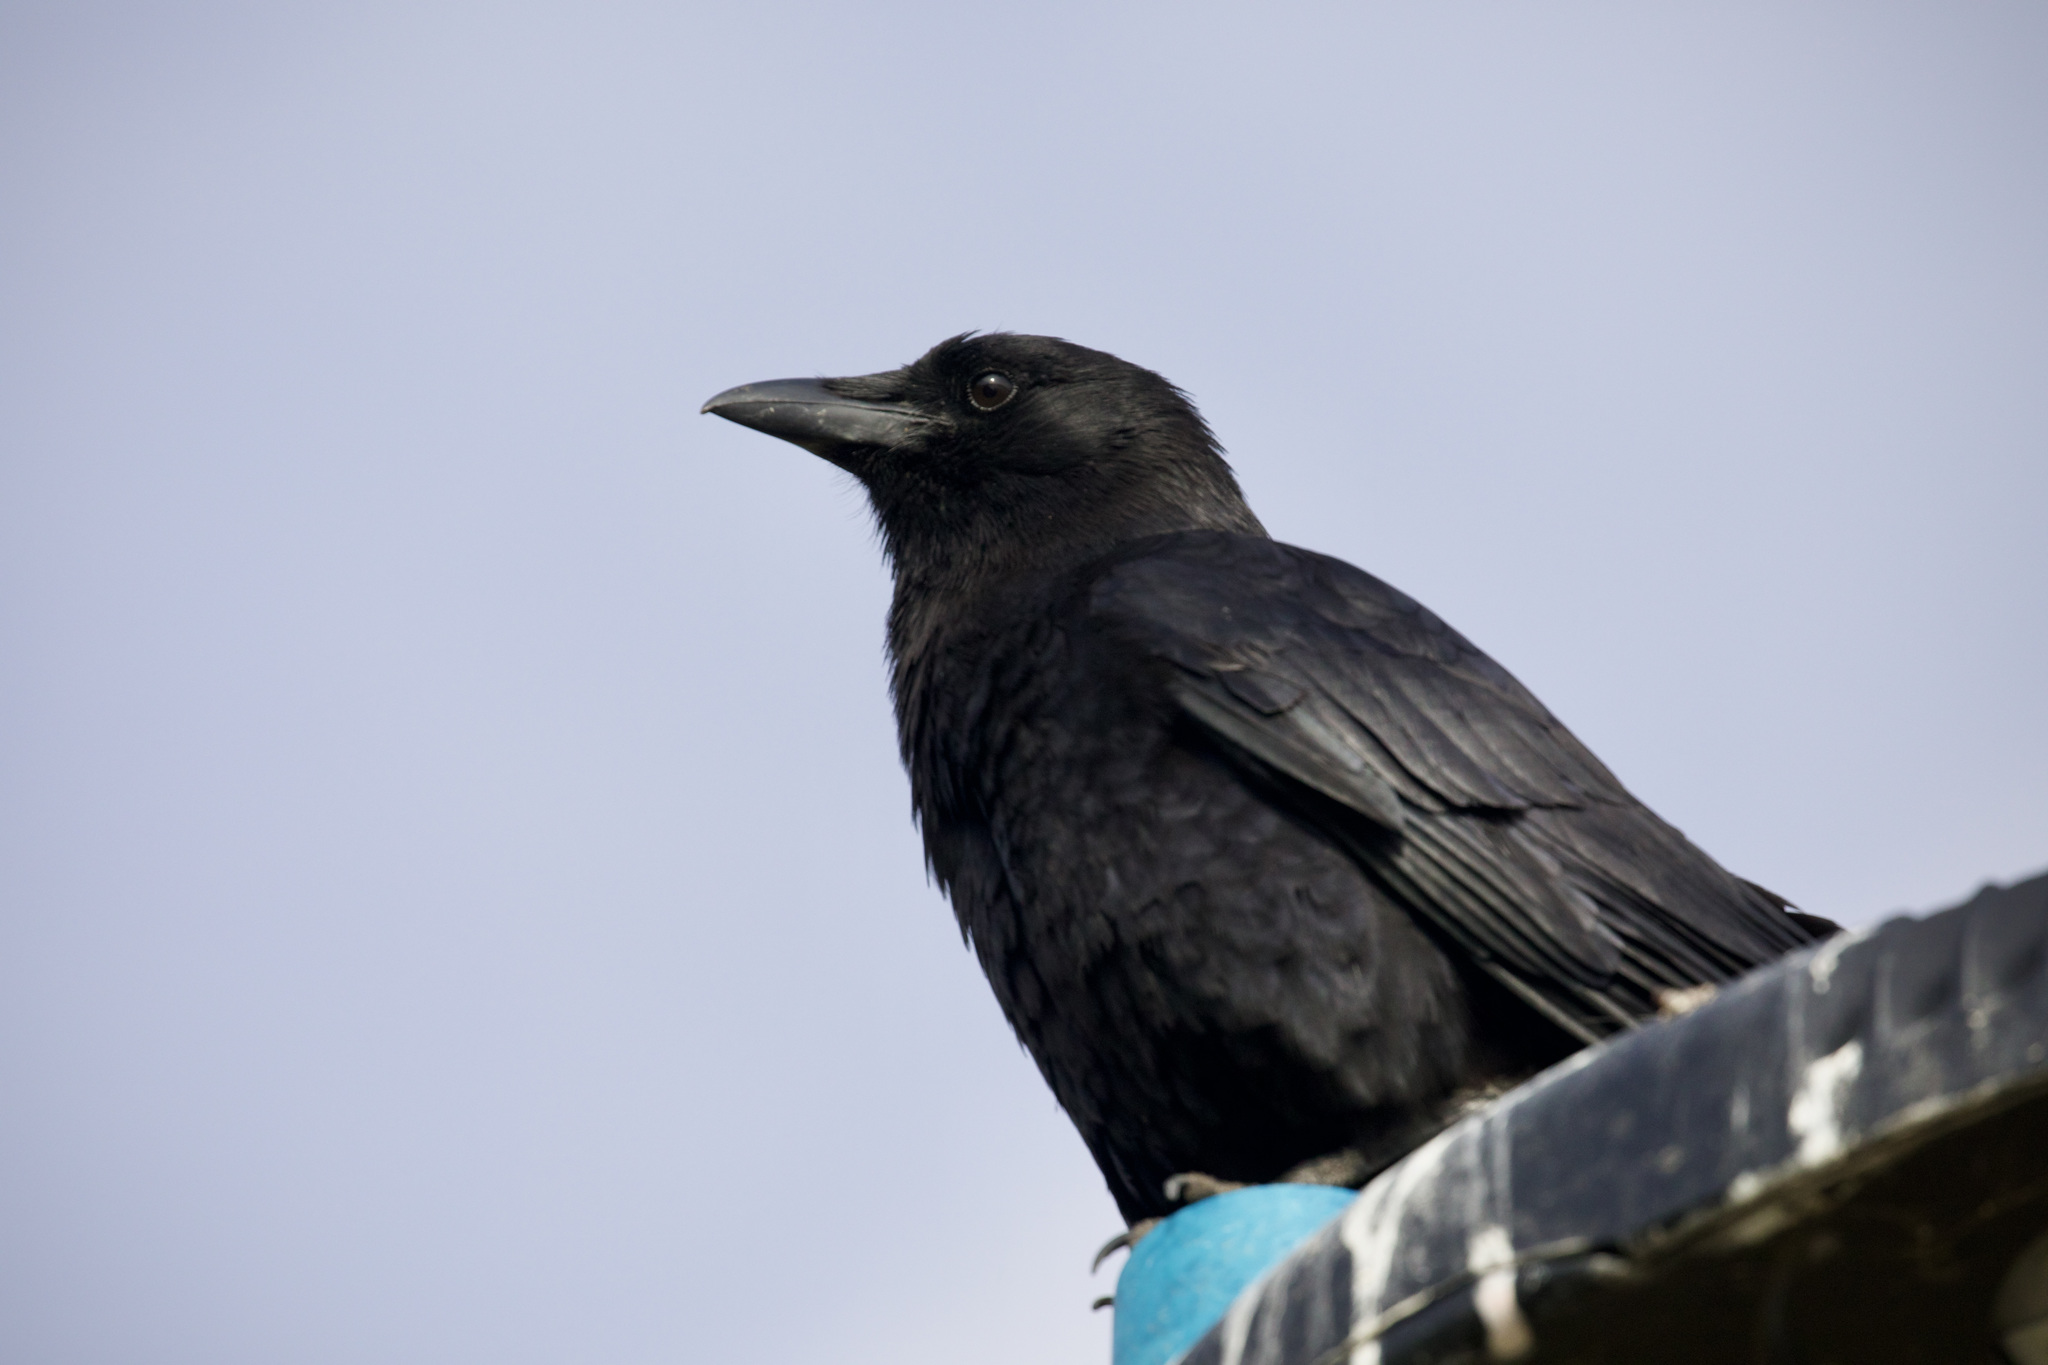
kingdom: Animalia
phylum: Chordata
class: Aves
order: Passeriformes
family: Corvidae
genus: Corvus
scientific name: Corvus brachyrhynchos
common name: American crow
